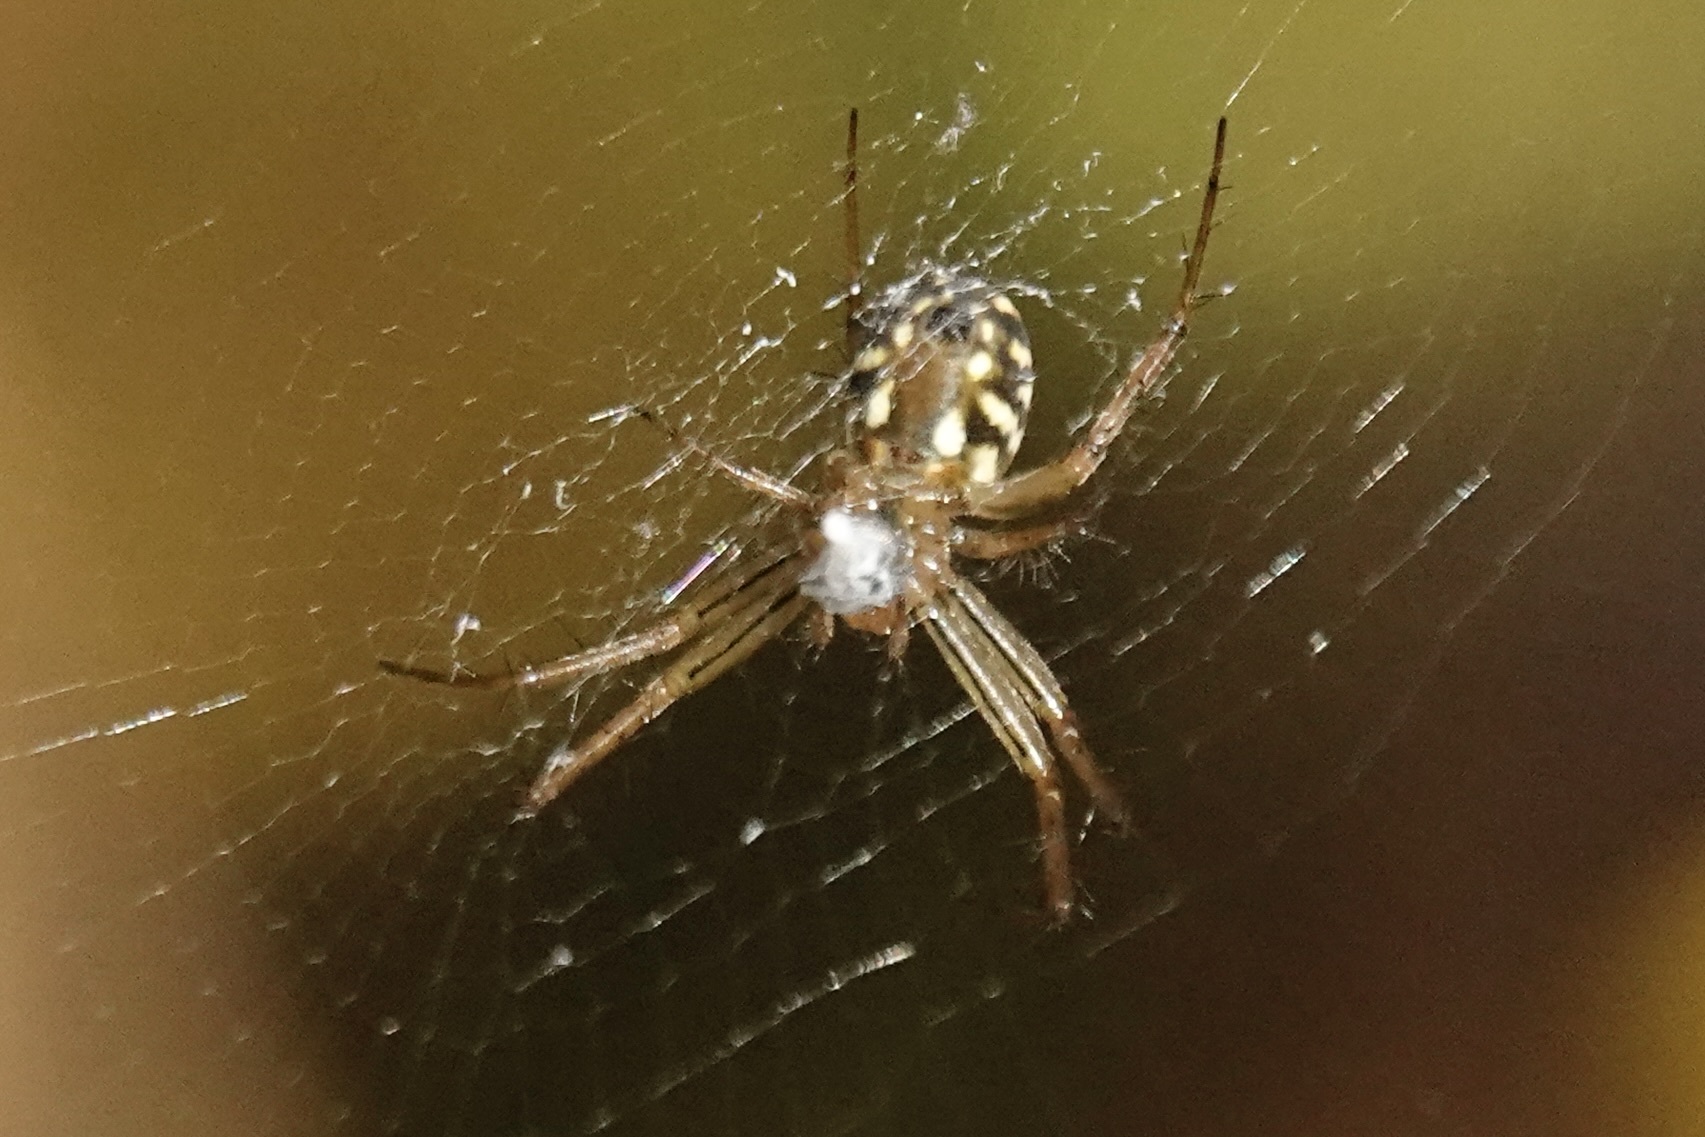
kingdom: Animalia
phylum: Arthropoda
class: Arachnida
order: Araneae
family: Araneidae
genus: Mangora
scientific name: Mangora gibberosa
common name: Lined orbweaver
